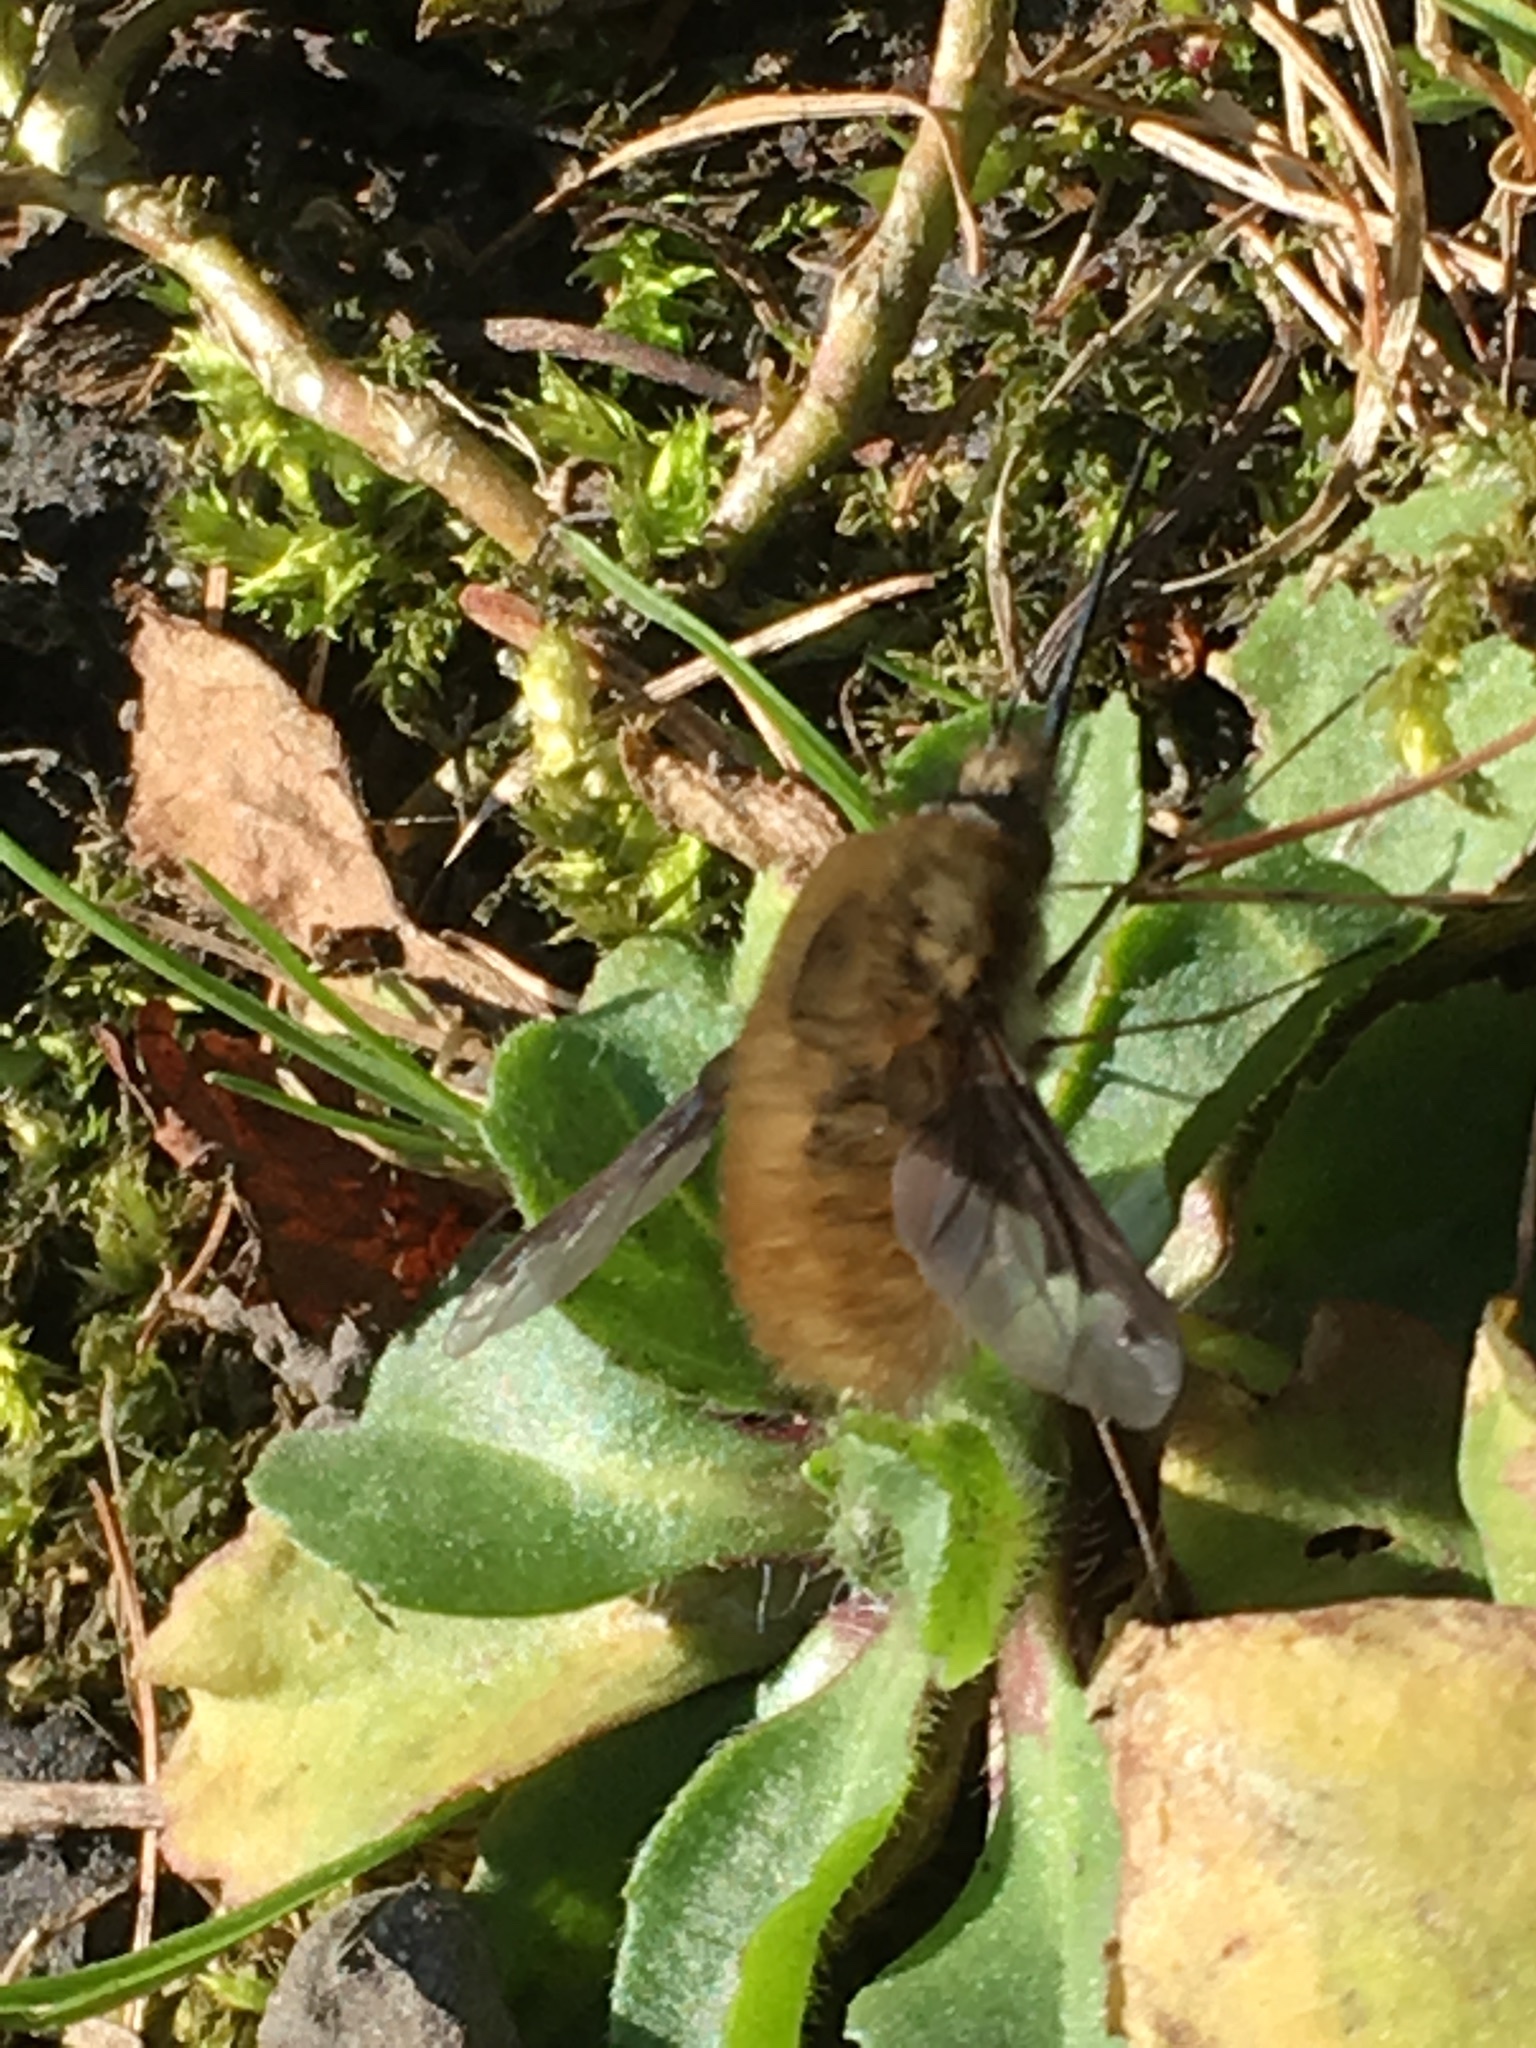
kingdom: Animalia
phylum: Arthropoda
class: Insecta
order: Diptera
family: Bombyliidae
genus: Bombylius
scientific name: Bombylius major
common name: Bee fly
